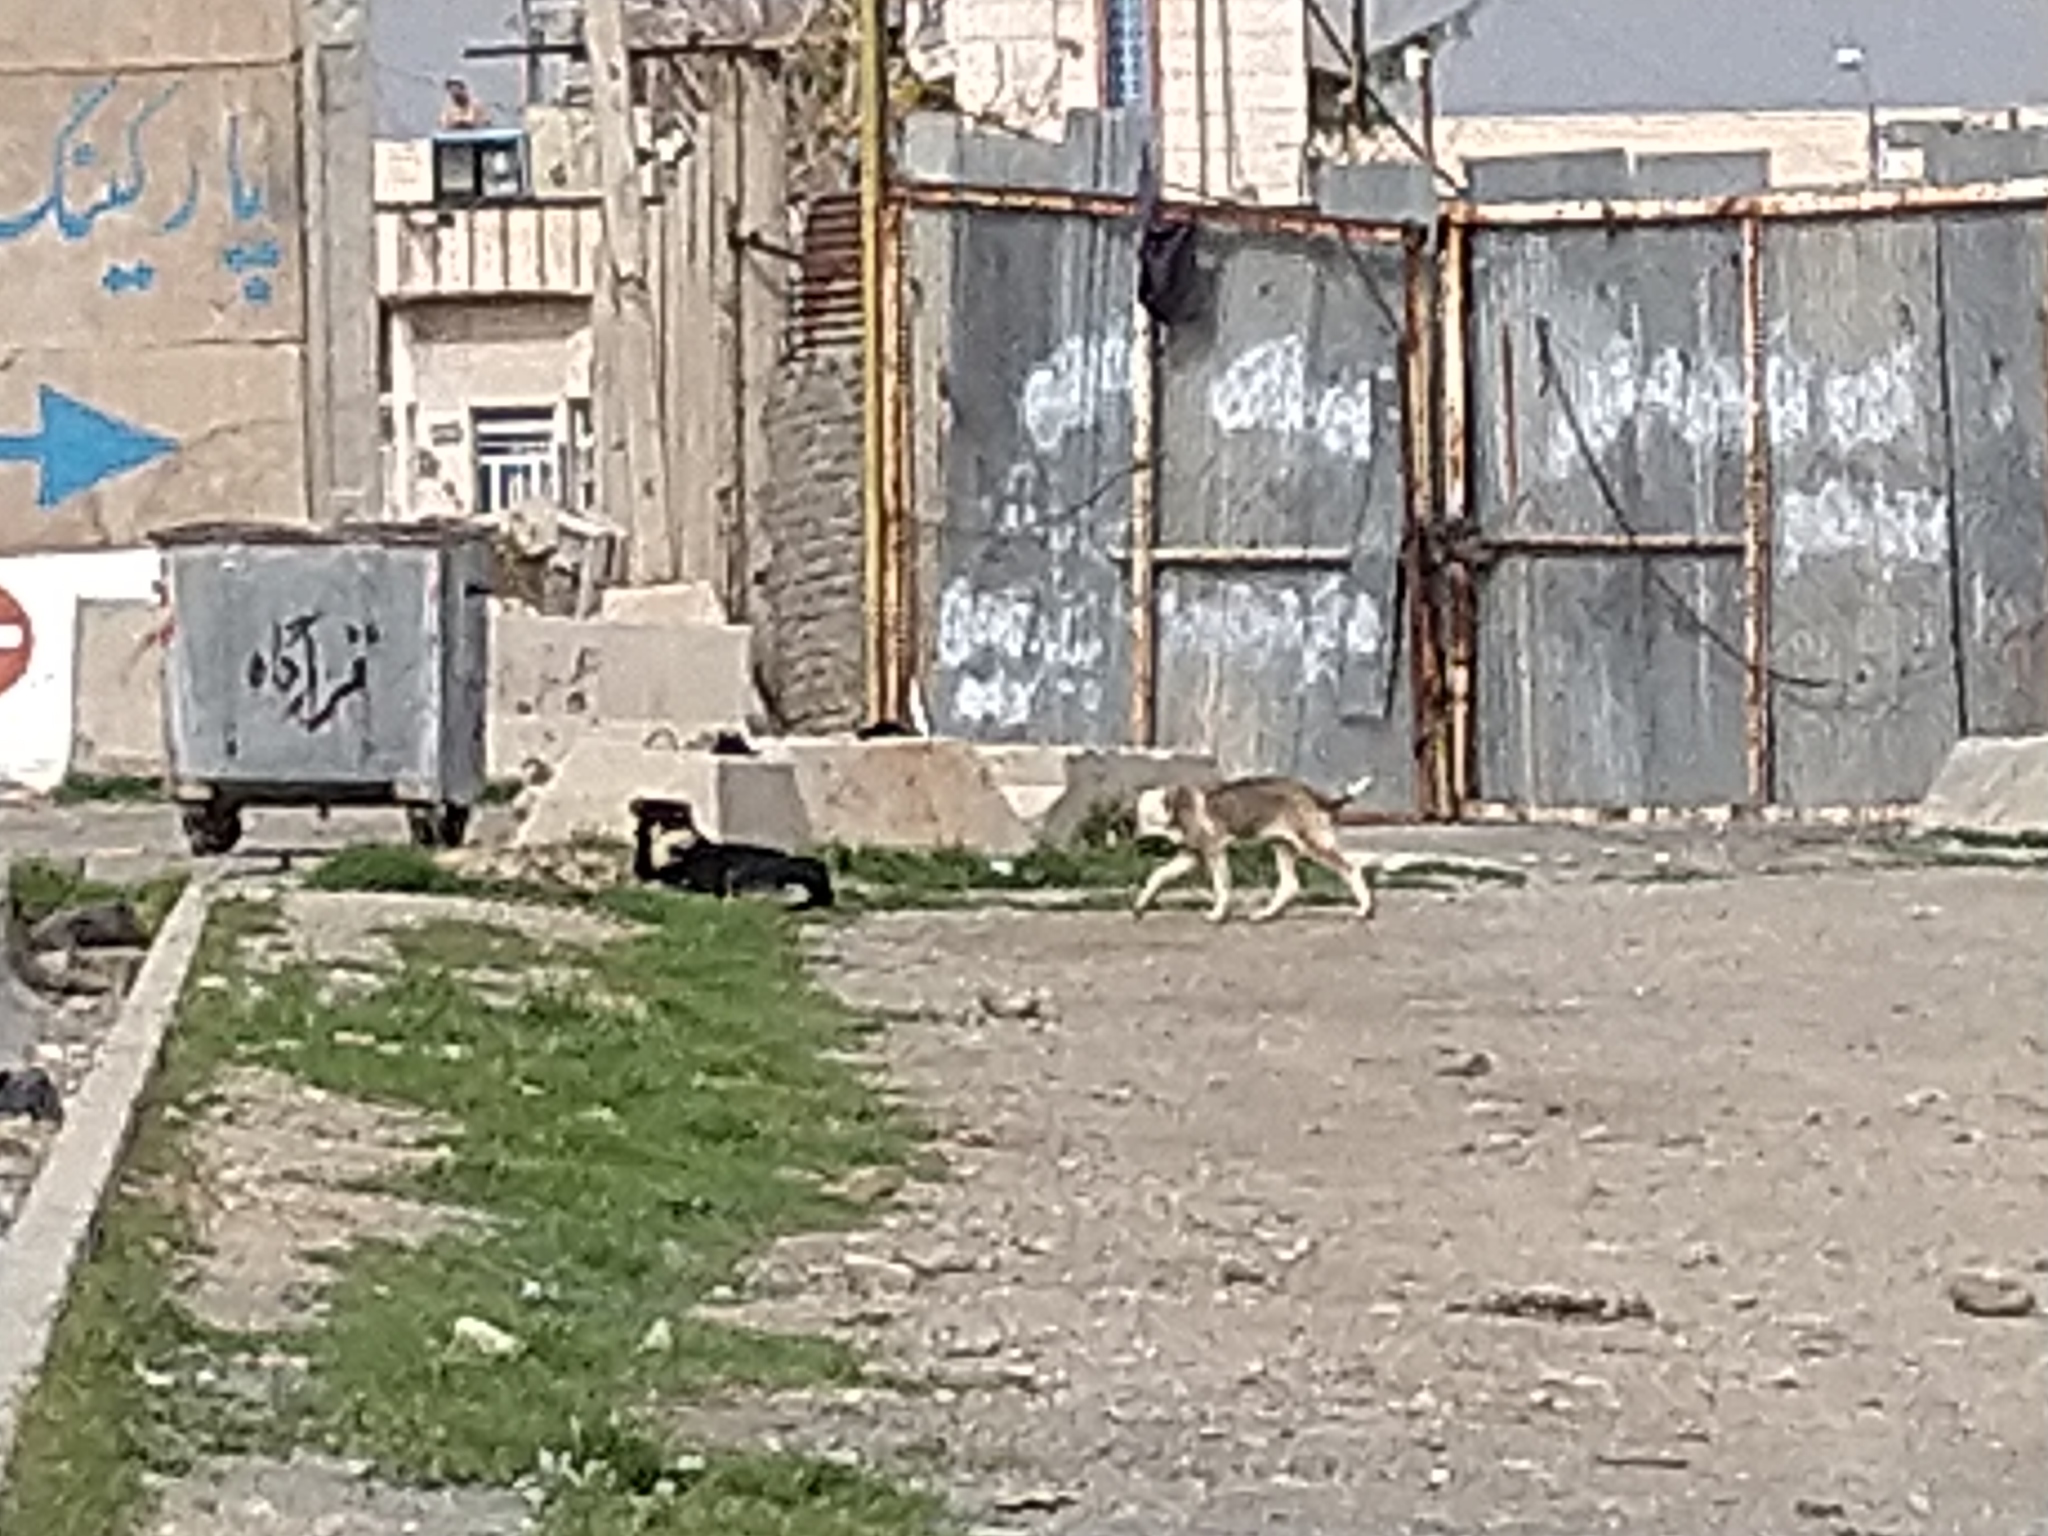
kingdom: Animalia
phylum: Chordata
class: Mammalia
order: Carnivora
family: Canidae
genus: Canis
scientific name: Canis lupus
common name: Gray wolf
